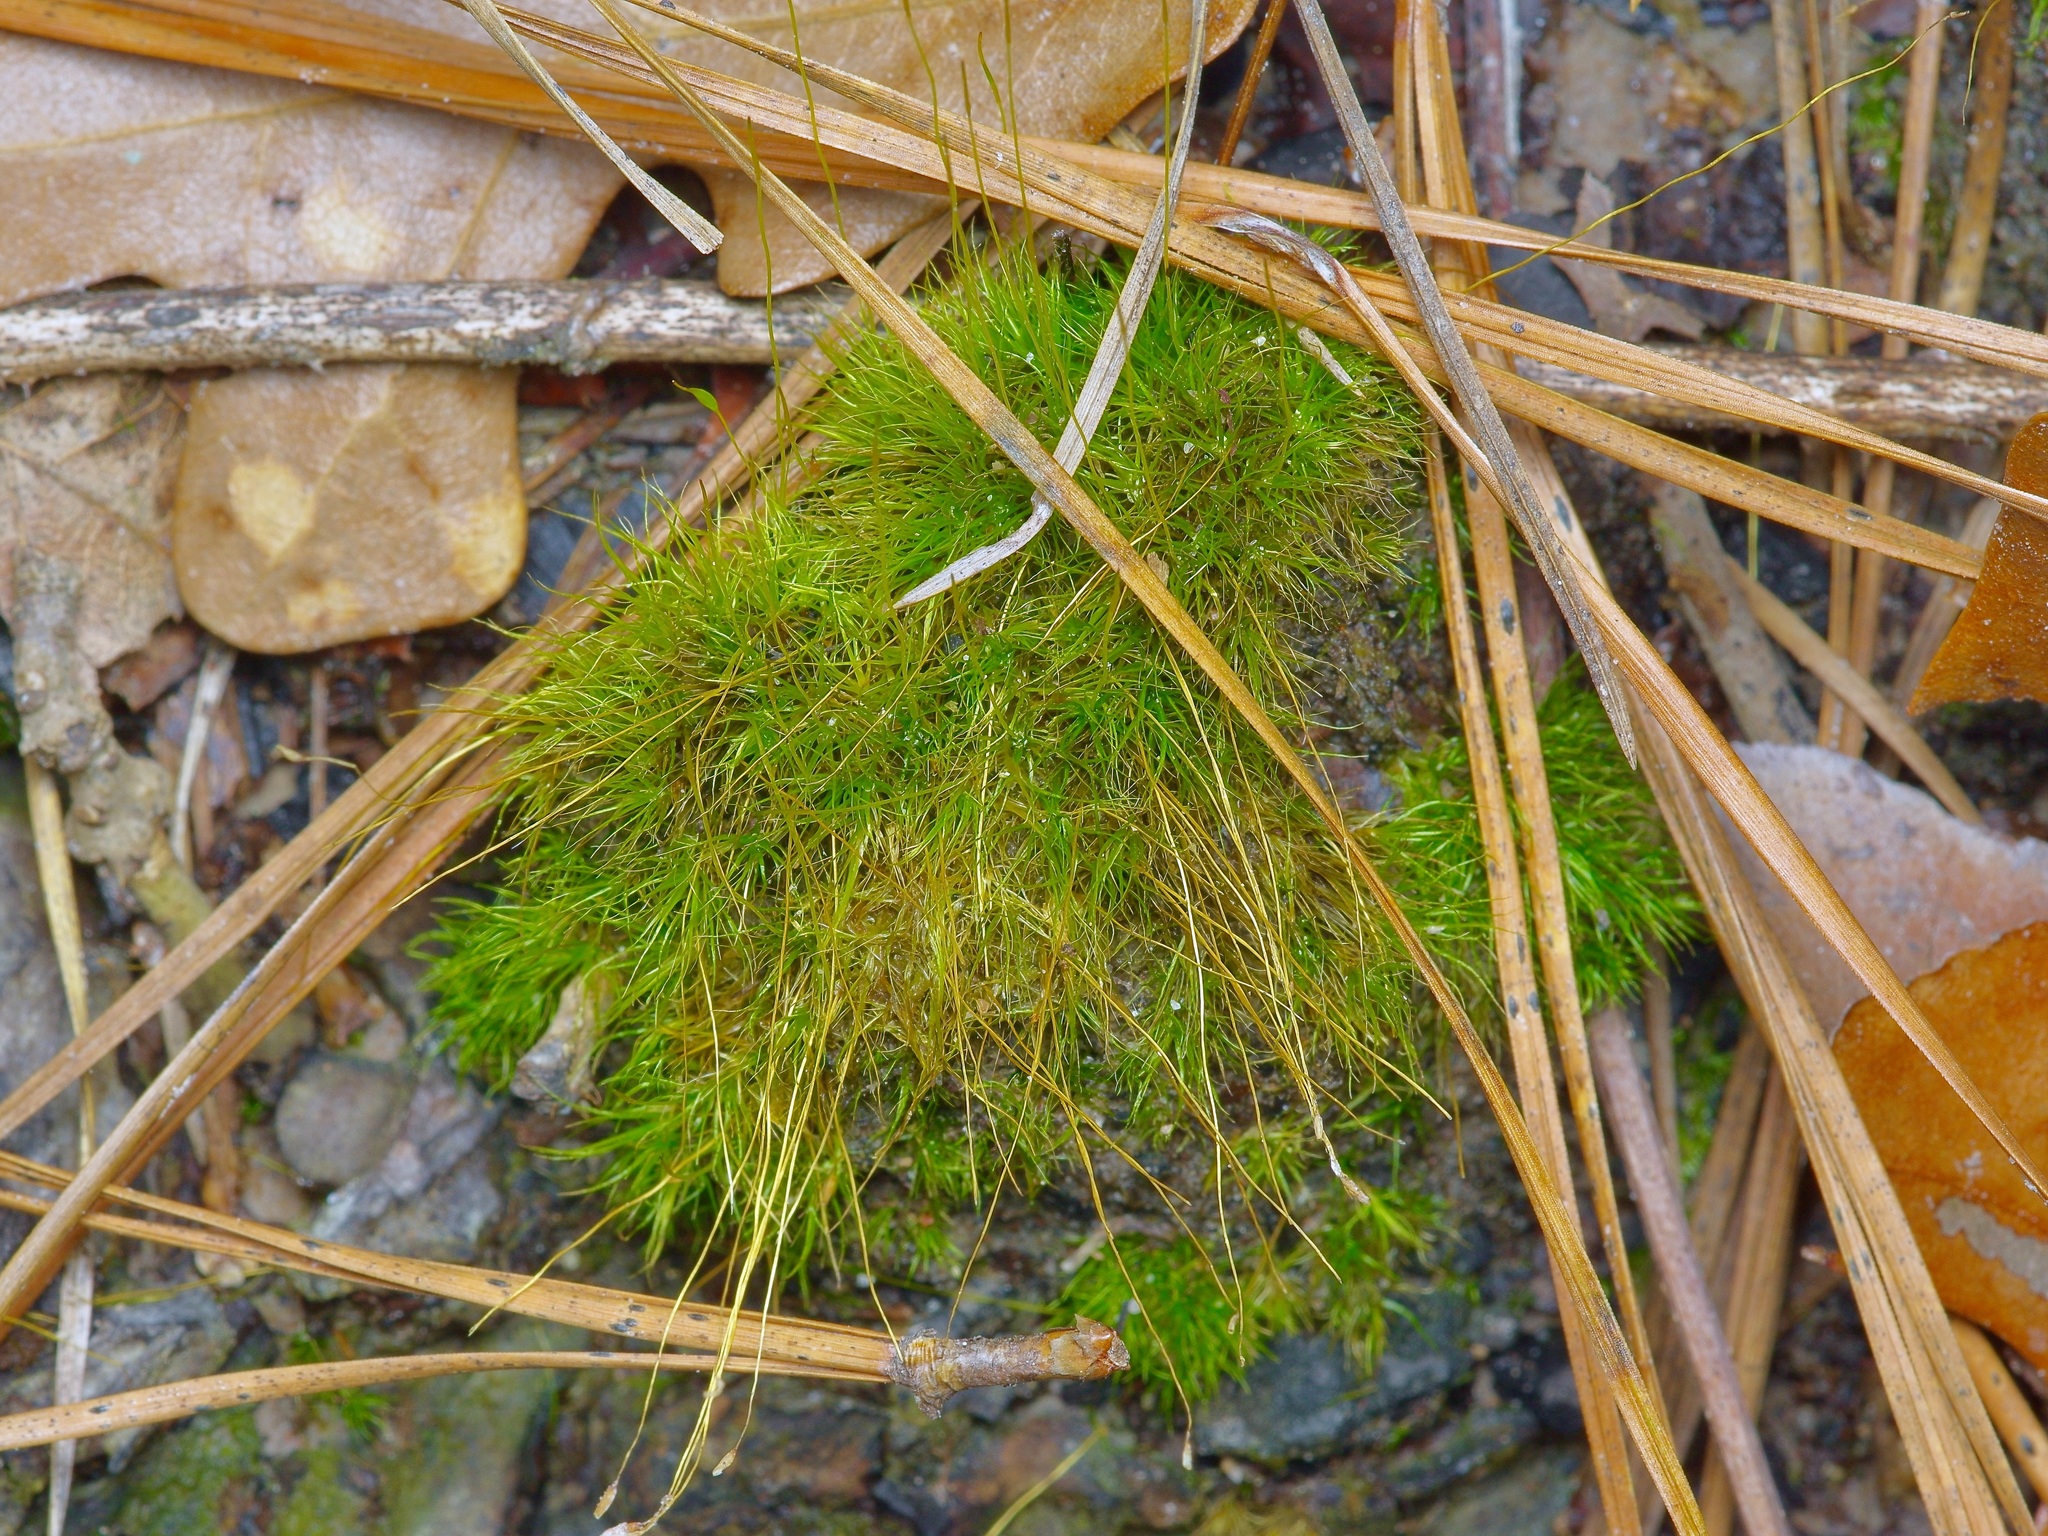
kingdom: Plantae
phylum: Bryophyta
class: Bryopsida
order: Dicranales
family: Ditrichaceae
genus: Ditrichum
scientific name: Ditrichum pallidum
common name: Pale cow-hair moss
